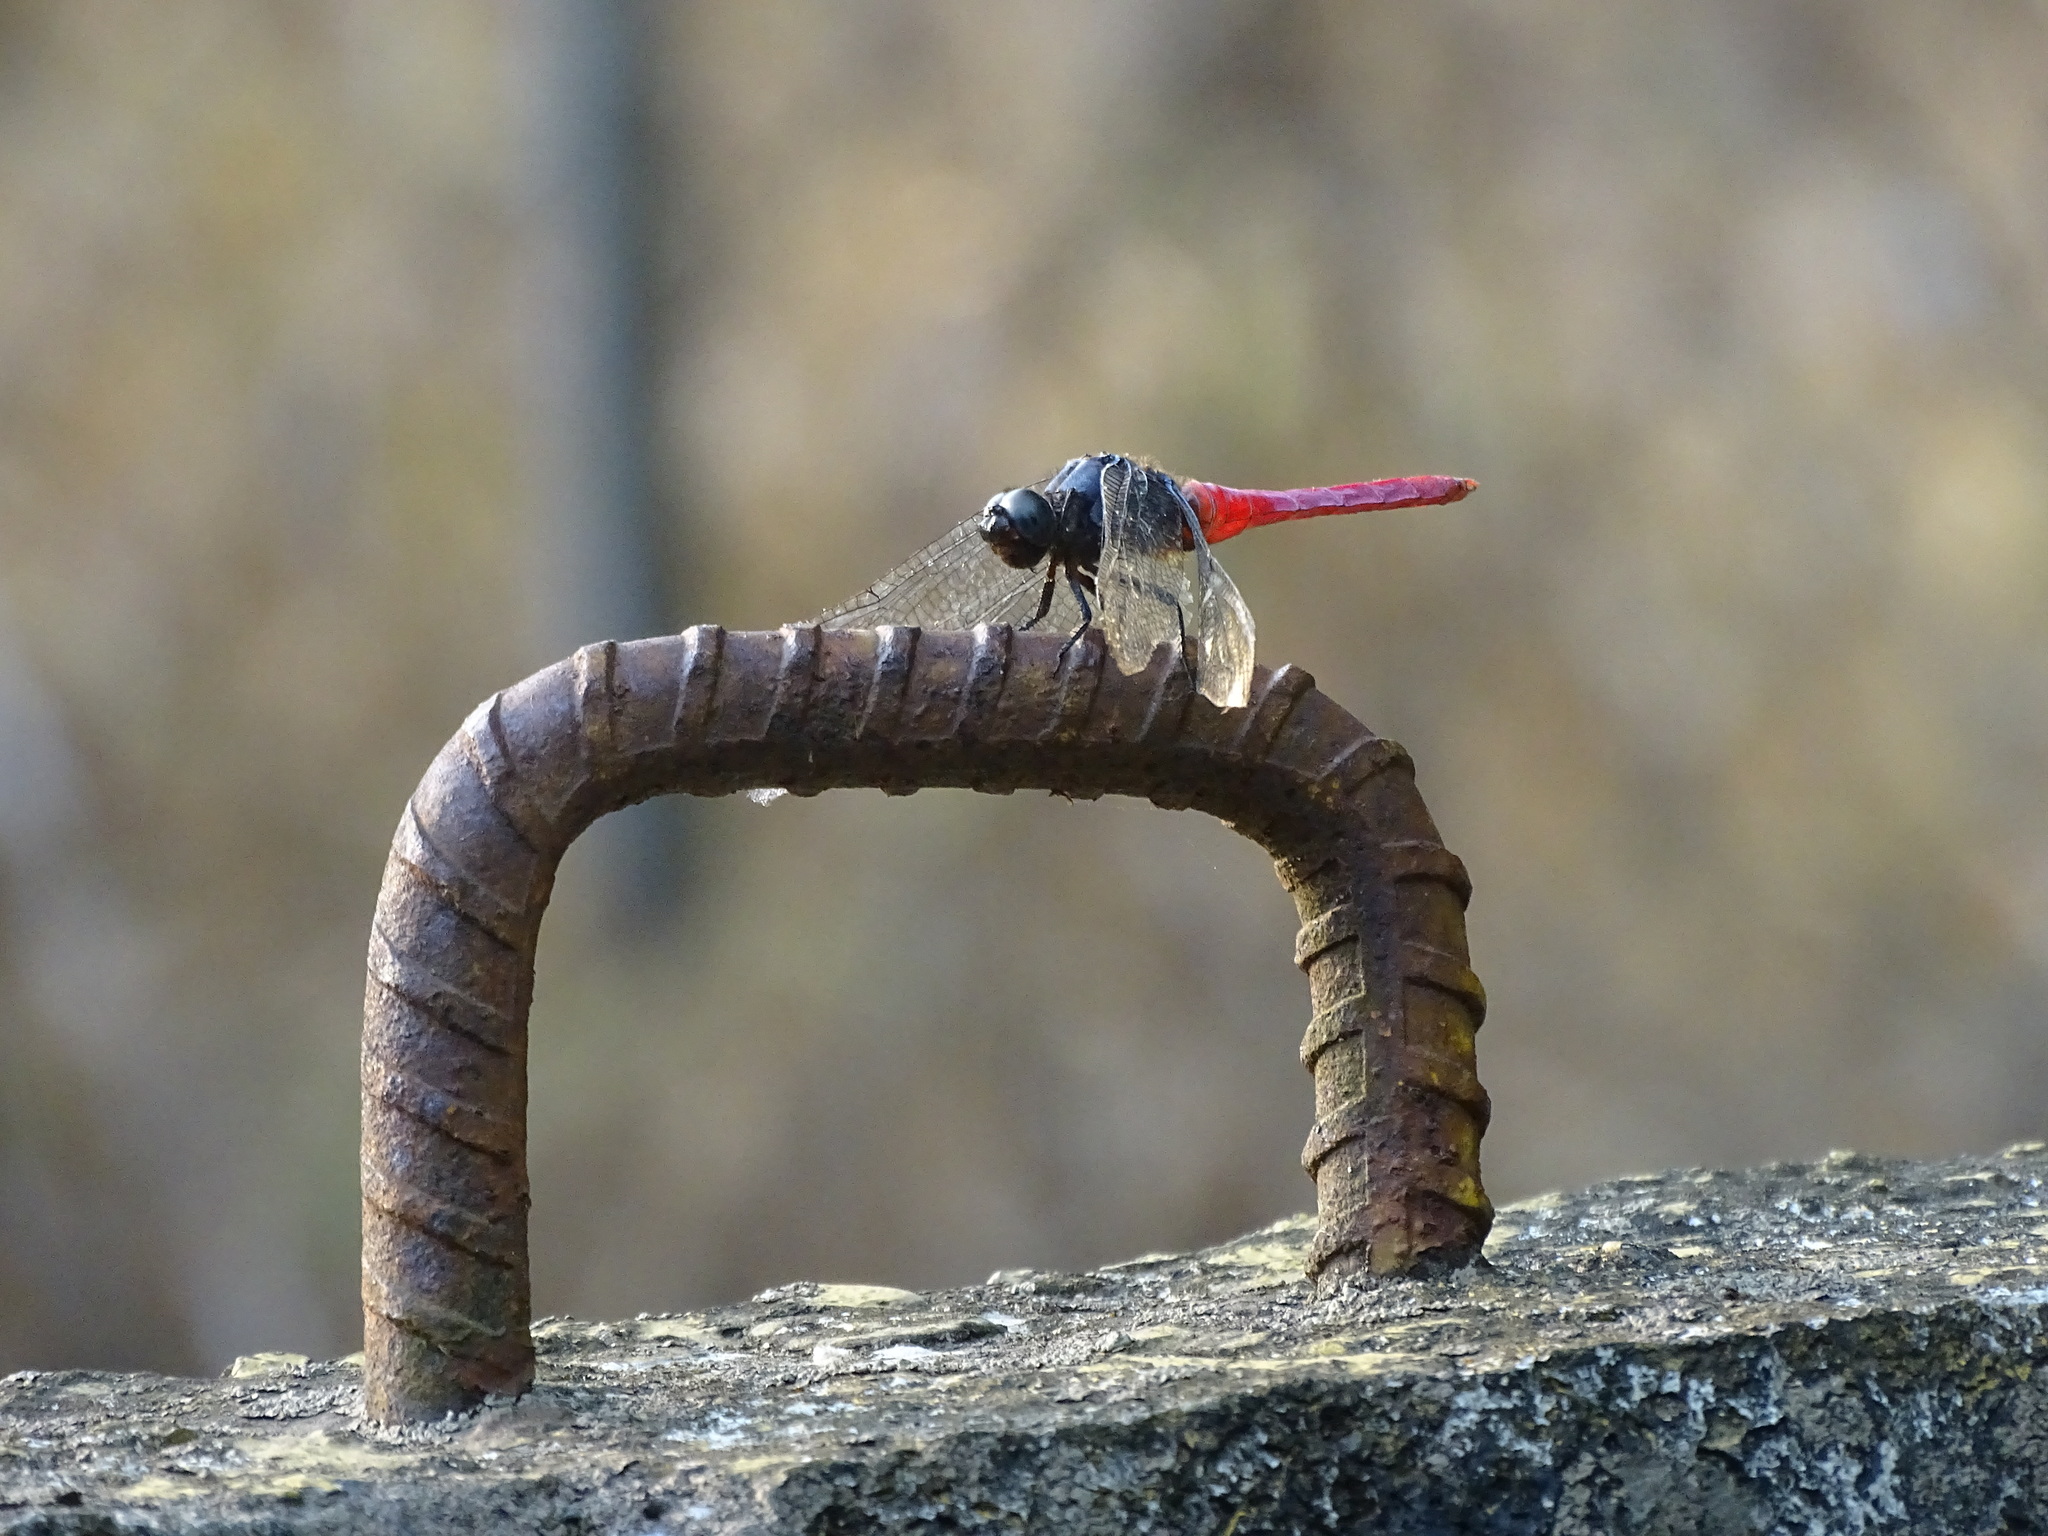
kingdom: Animalia
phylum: Arthropoda
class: Insecta
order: Odonata
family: Libellulidae
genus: Orthetrum
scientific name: Orthetrum pruinosum
